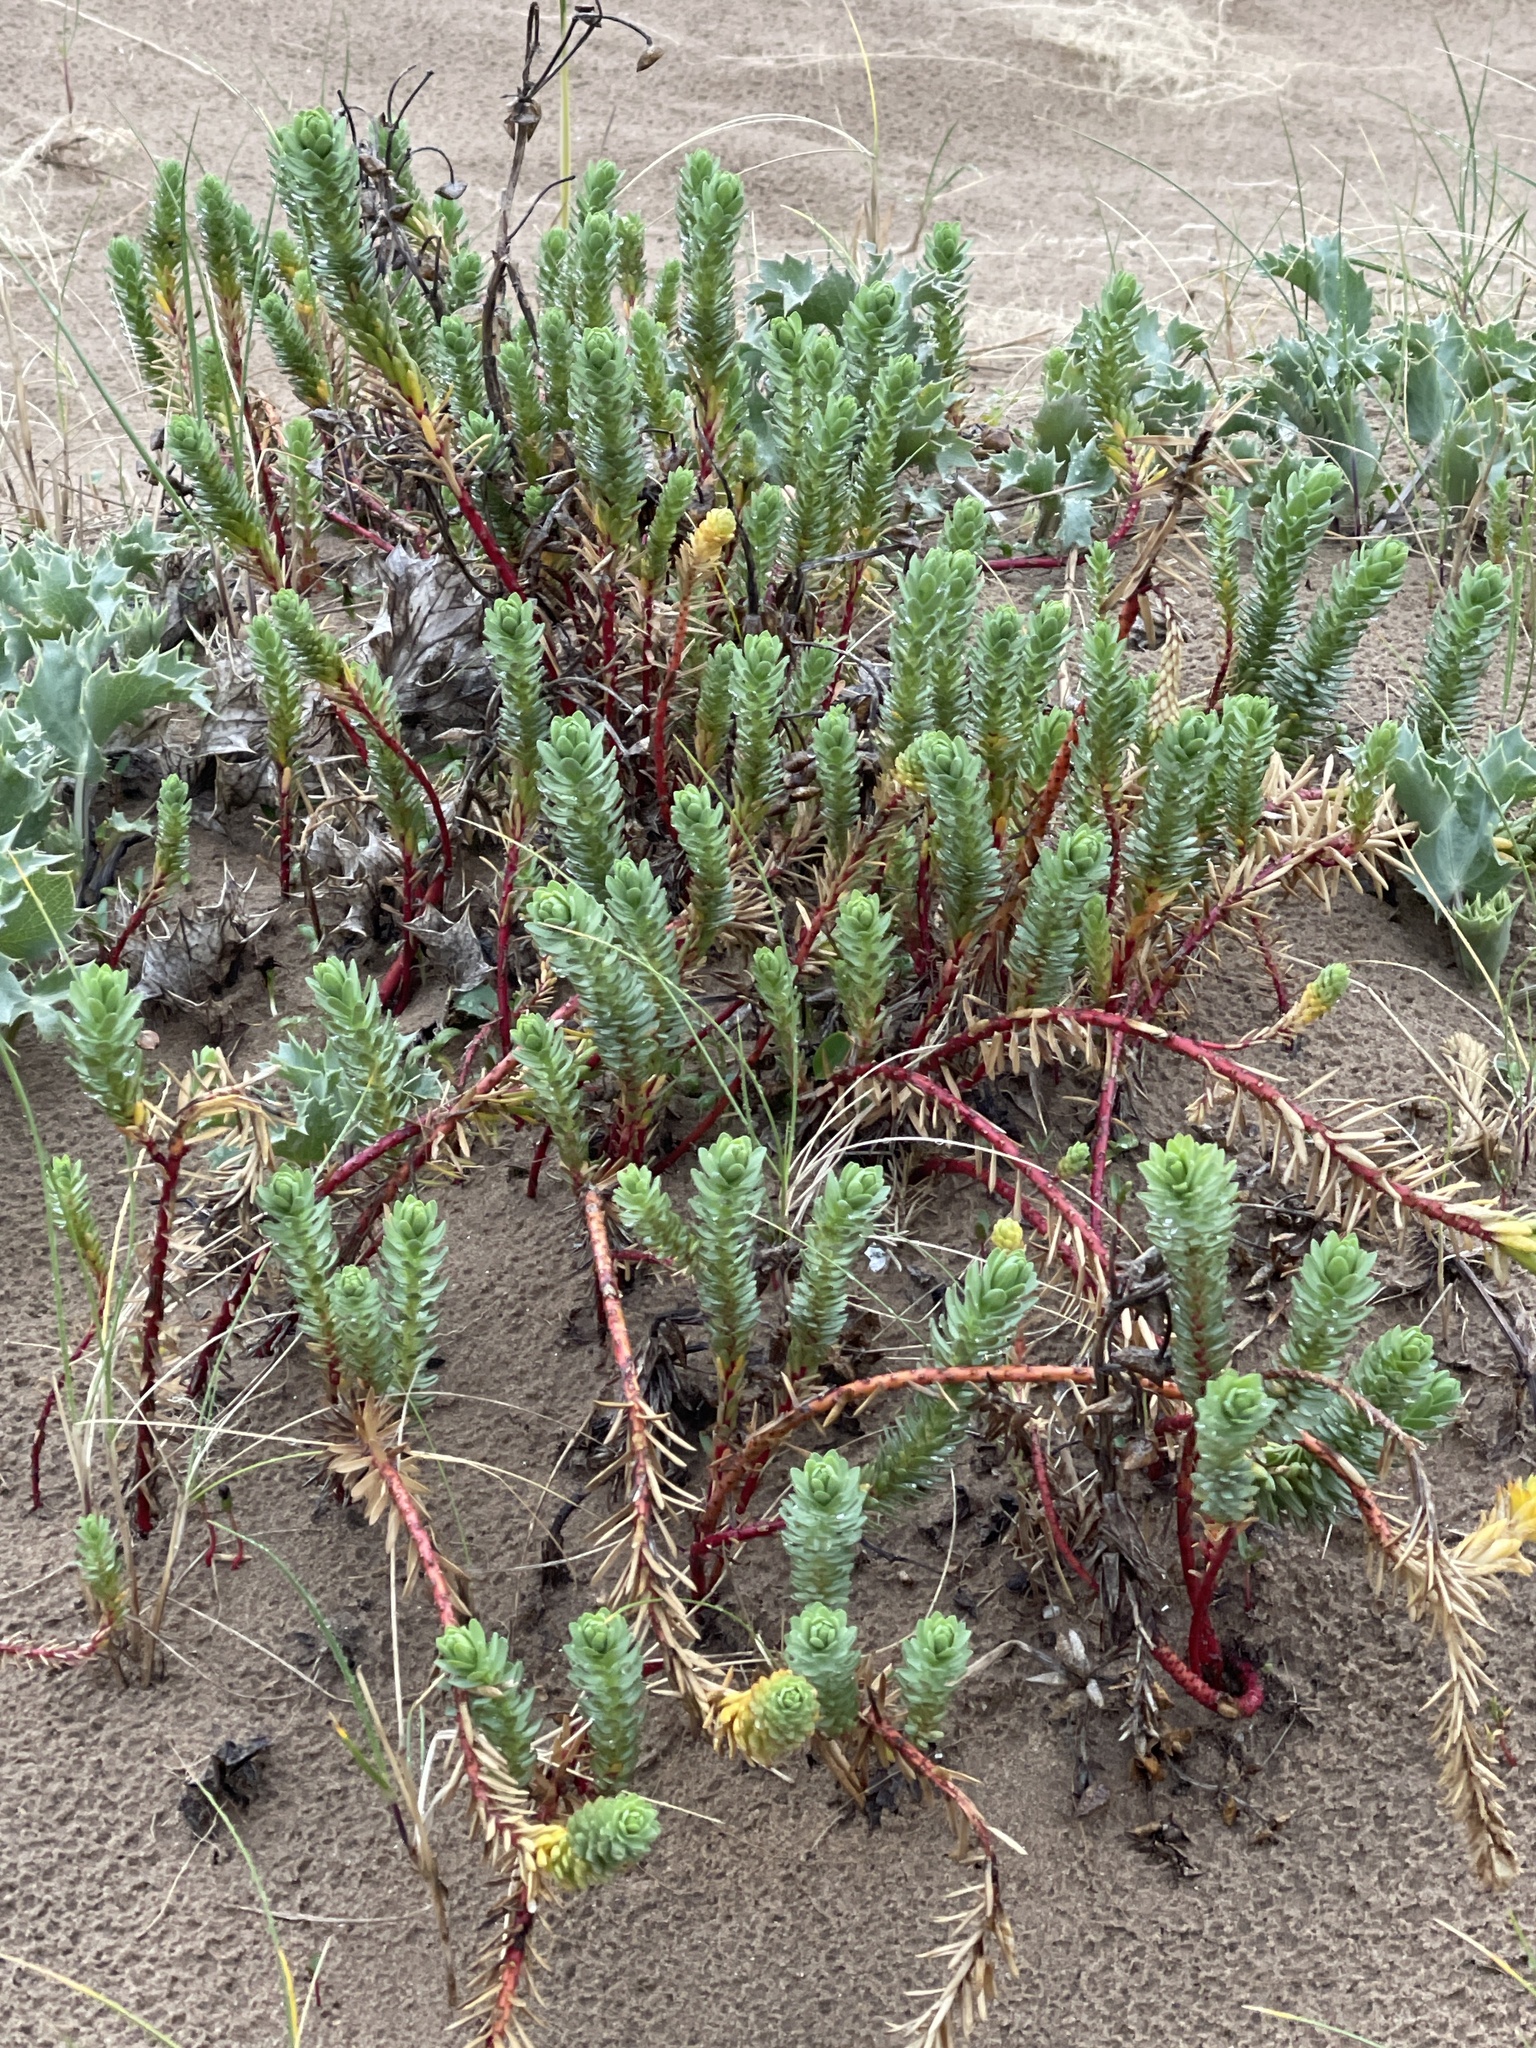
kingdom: Plantae
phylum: Tracheophyta
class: Magnoliopsida
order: Malpighiales
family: Euphorbiaceae
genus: Euphorbia
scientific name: Euphorbia paralias
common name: Sea spurge
